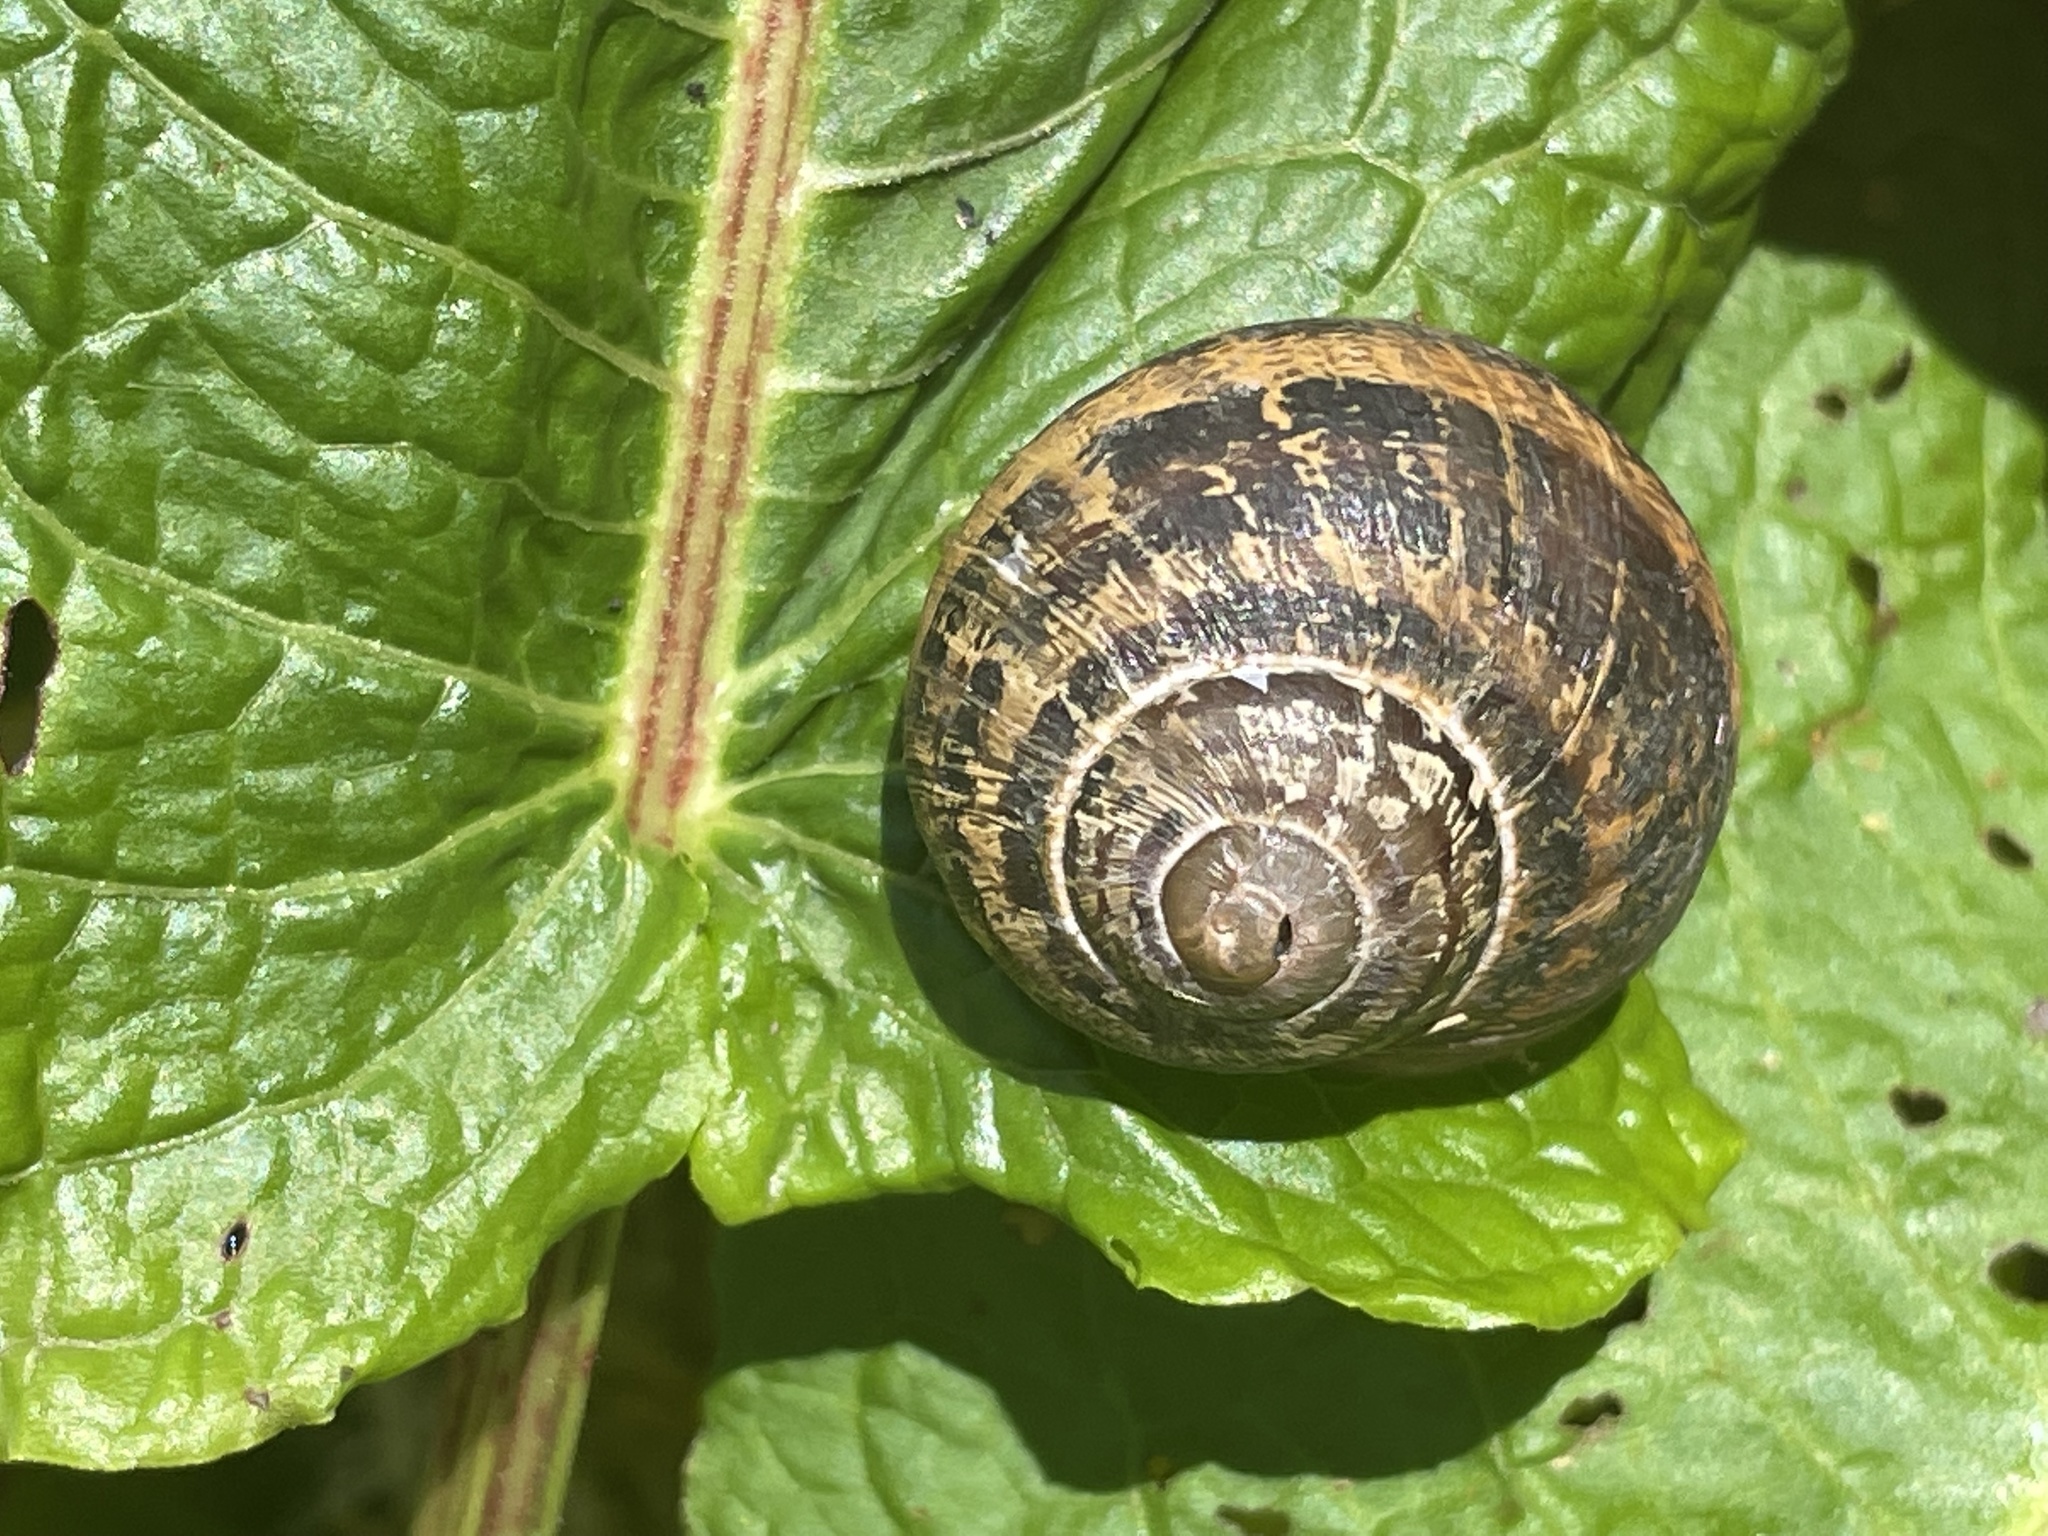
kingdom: Animalia
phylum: Mollusca
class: Gastropoda
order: Stylommatophora
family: Helicidae
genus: Cornu
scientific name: Cornu aspersum
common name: Brown garden snail
